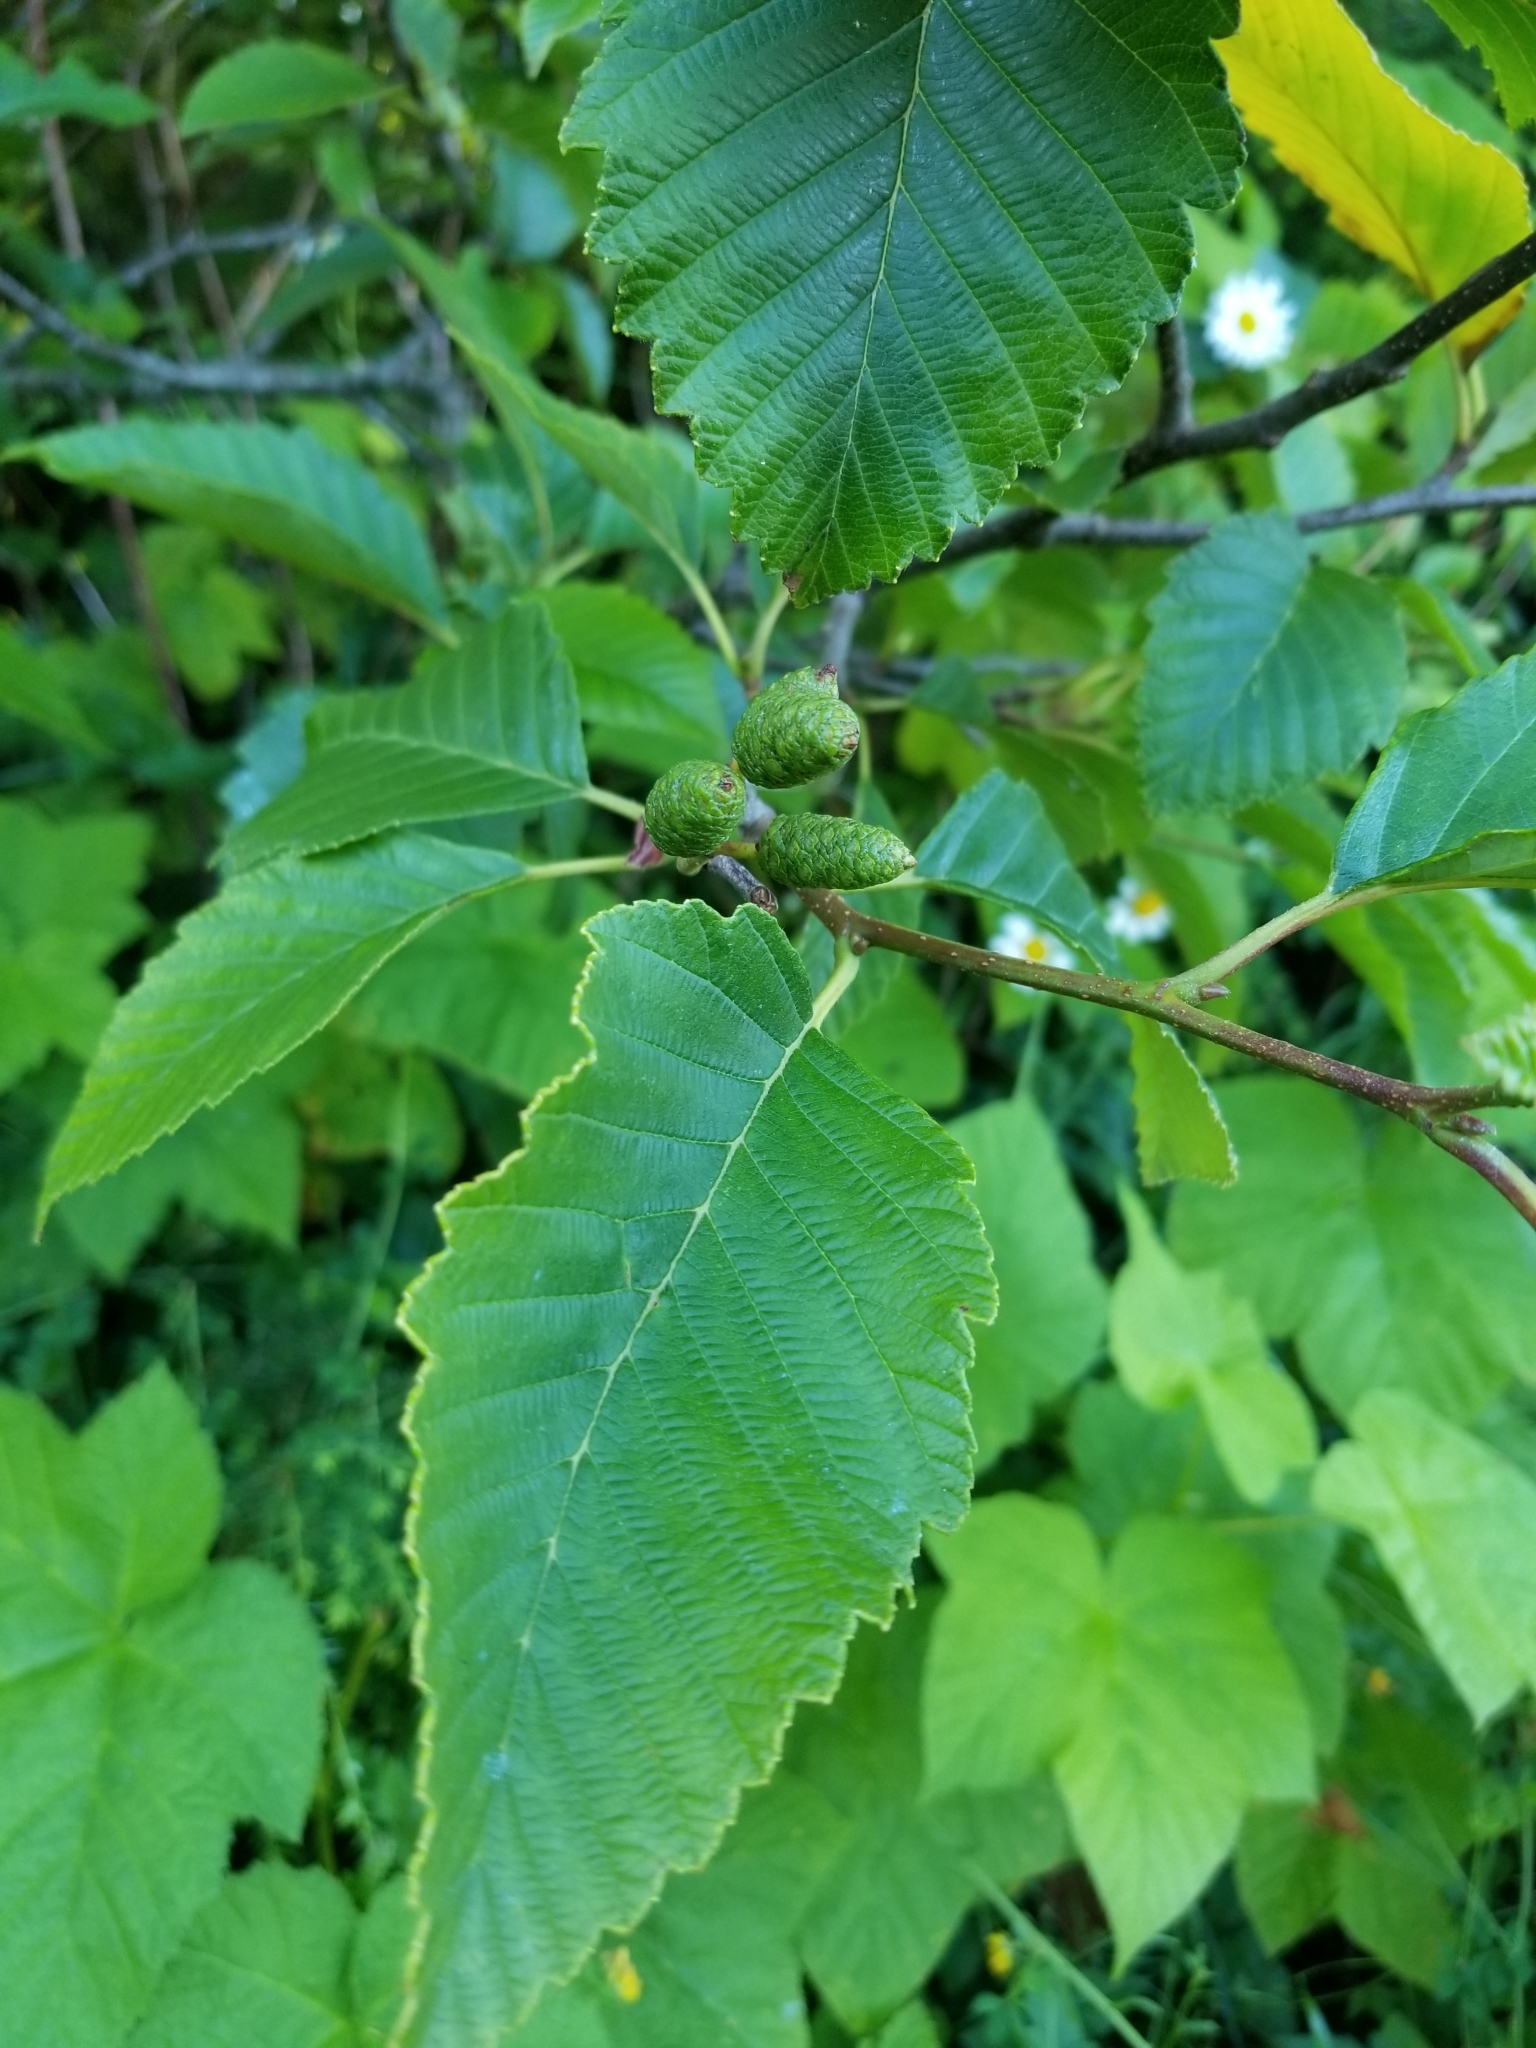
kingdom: Plantae
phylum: Tracheophyta
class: Magnoliopsida
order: Fagales
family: Betulaceae
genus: Alnus
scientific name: Alnus rubra
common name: Red alder
